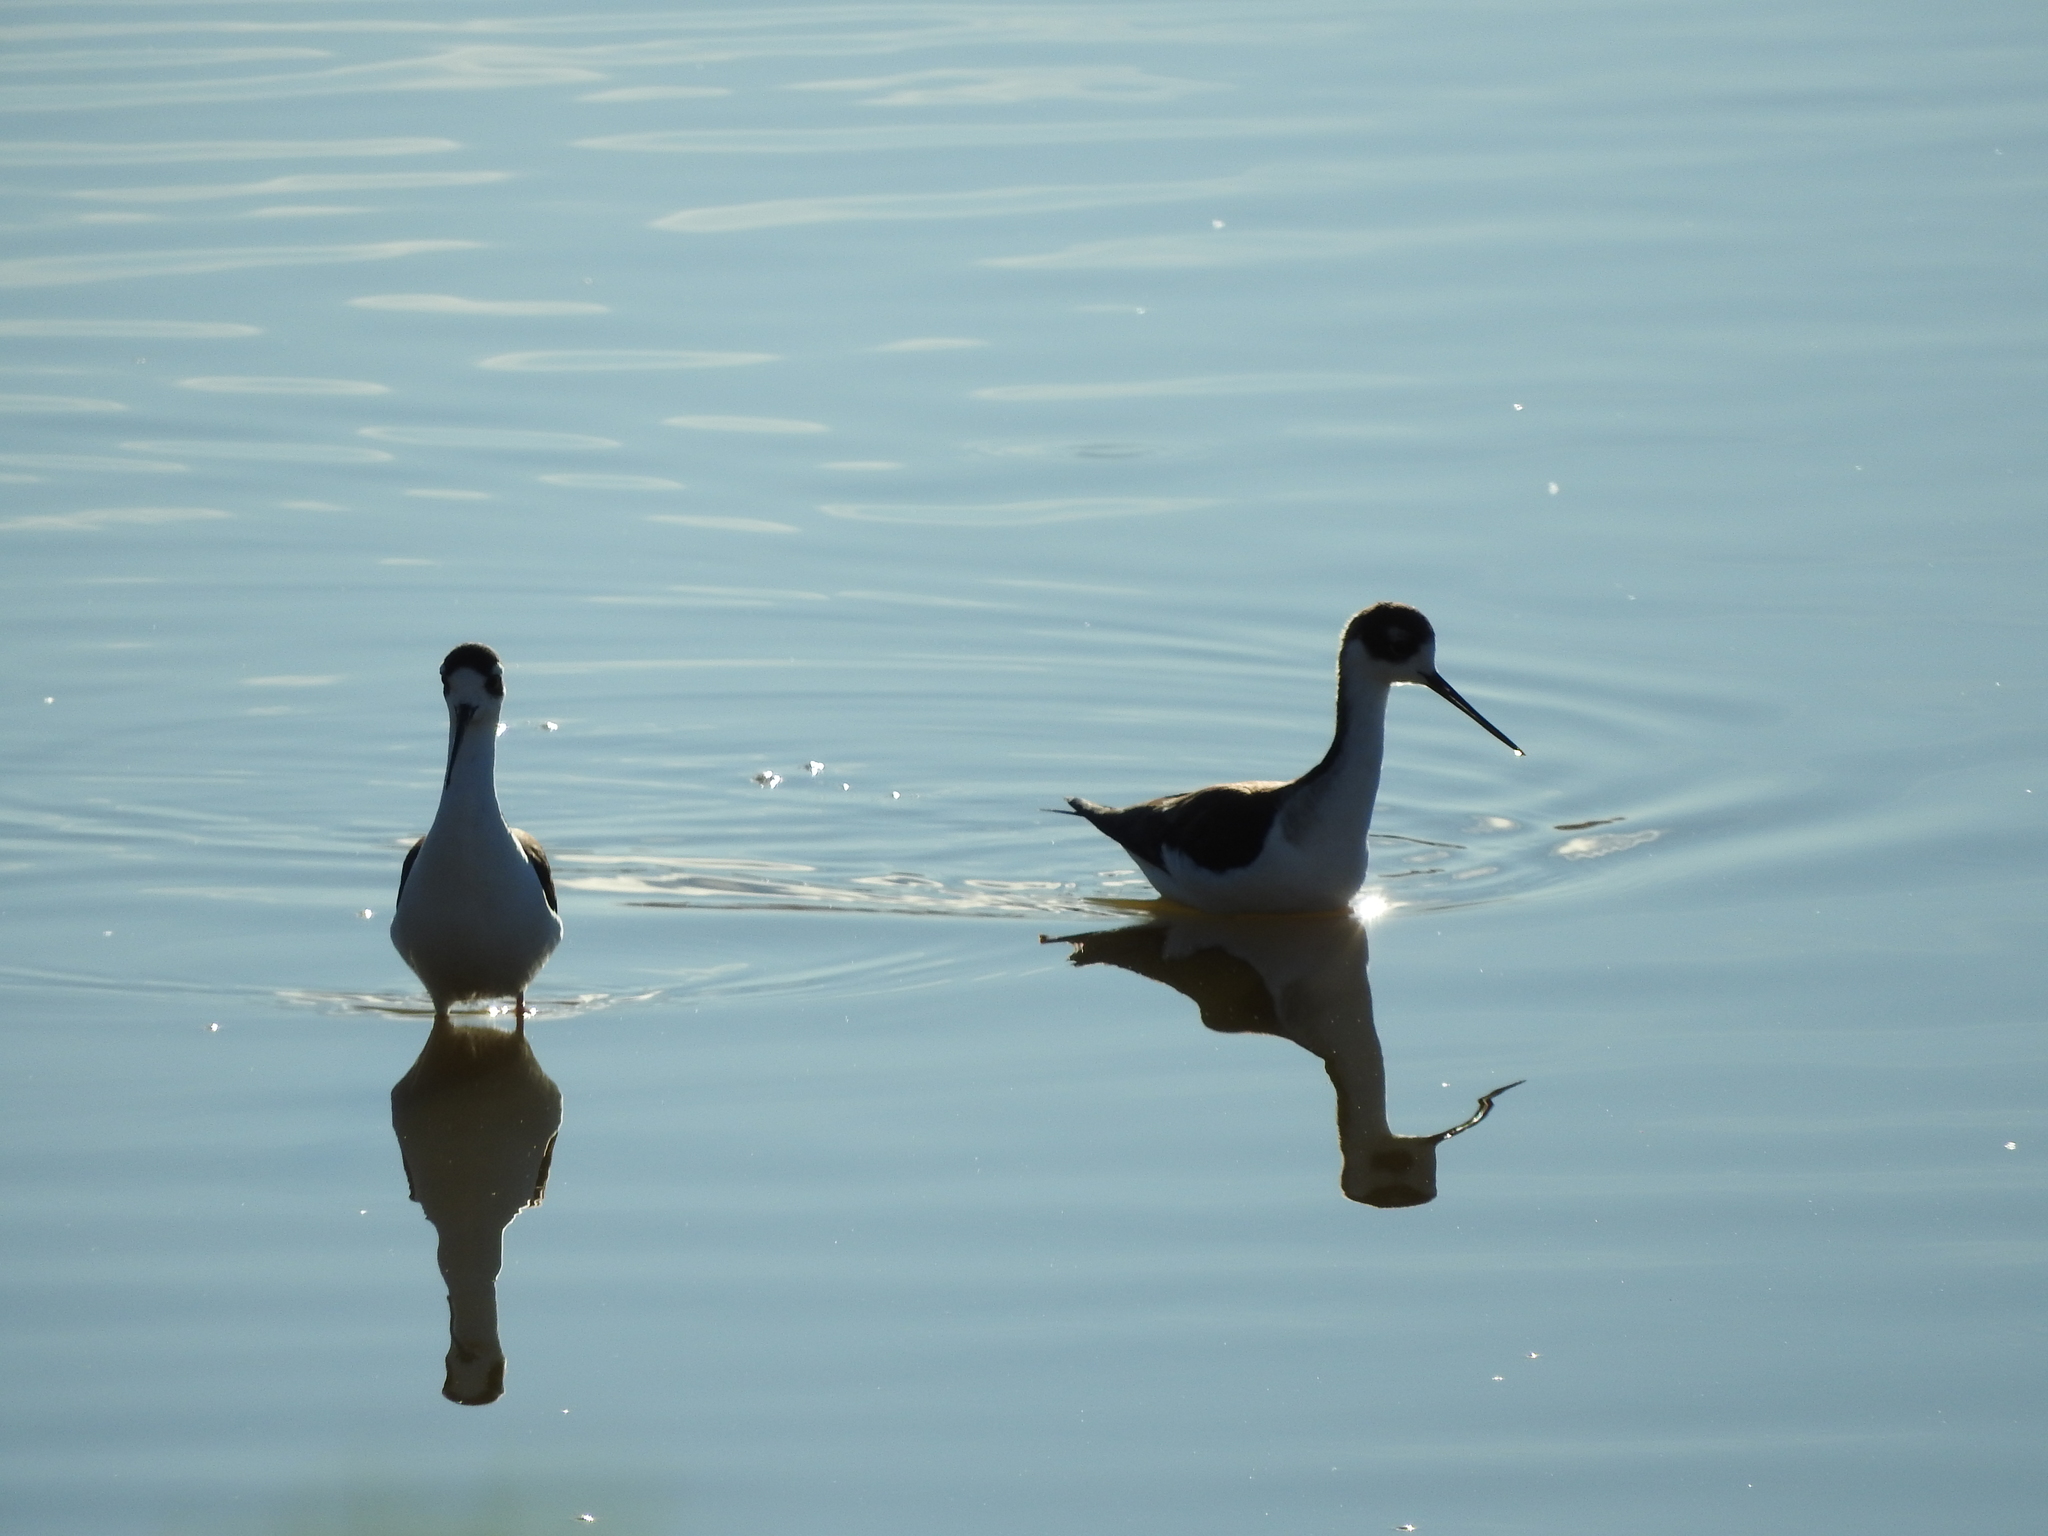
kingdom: Animalia
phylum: Chordata
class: Aves
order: Charadriiformes
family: Recurvirostridae
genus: Himantopus
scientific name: Himantopus mexicanus
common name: Black-necked stilt
